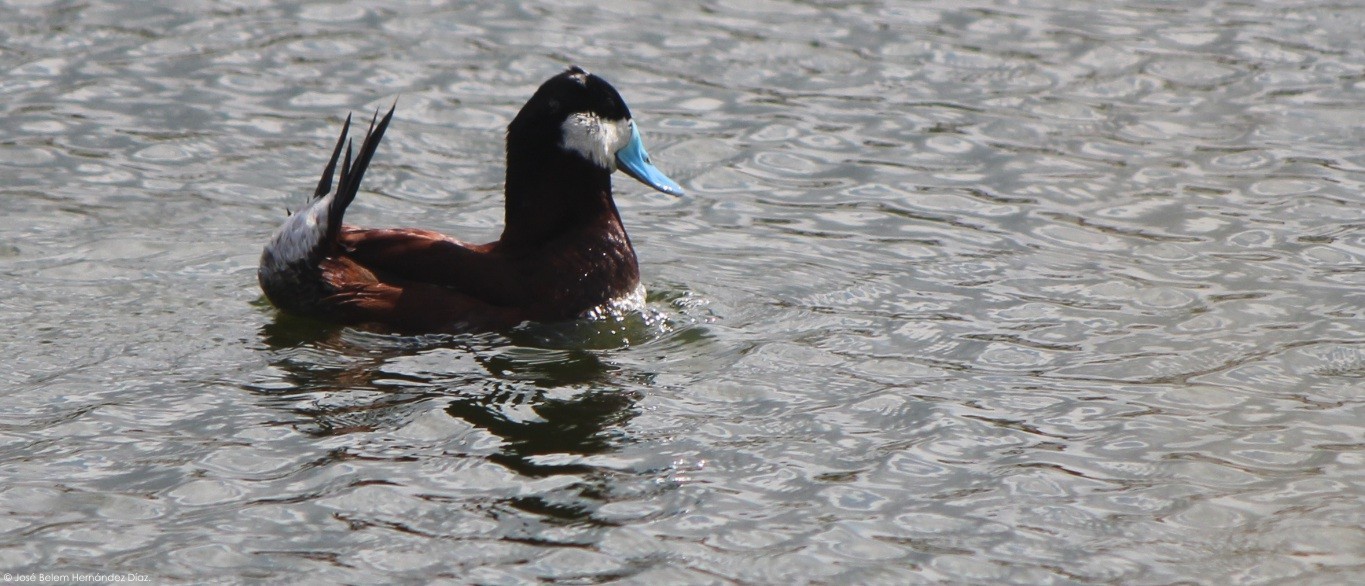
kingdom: Animalia
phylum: Chordata
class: Aves
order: Anseriformes
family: Anatidae
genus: Oxyura
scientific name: Oxyura jamaicensis
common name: Ruddy duck
